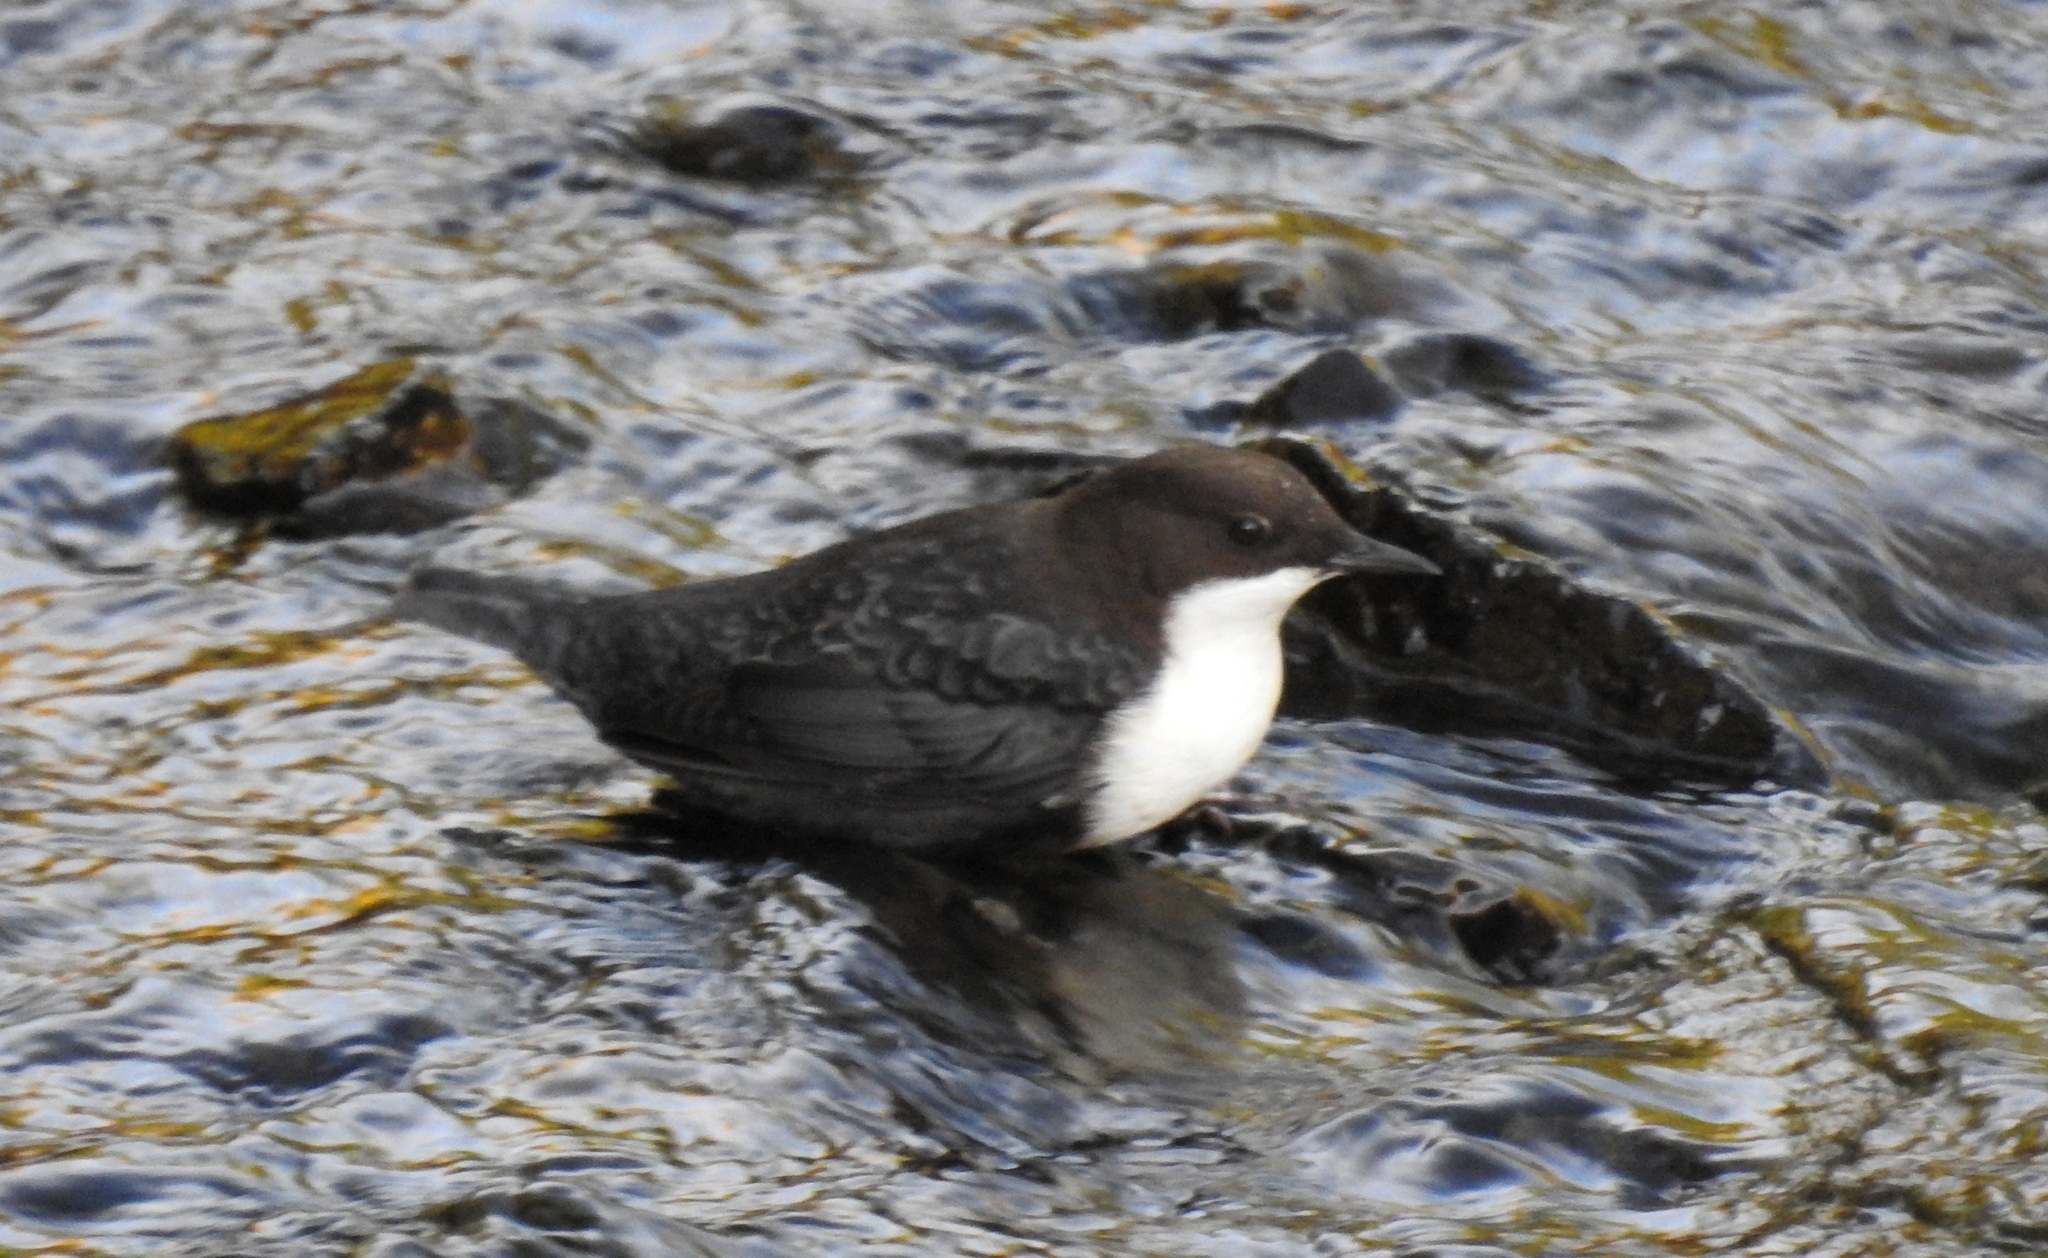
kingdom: Animalia
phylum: Chordata
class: Aves
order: Passeriformes
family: Cinclidae
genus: Cinclus
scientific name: Cinclus cinclus
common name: White-throated dipper
